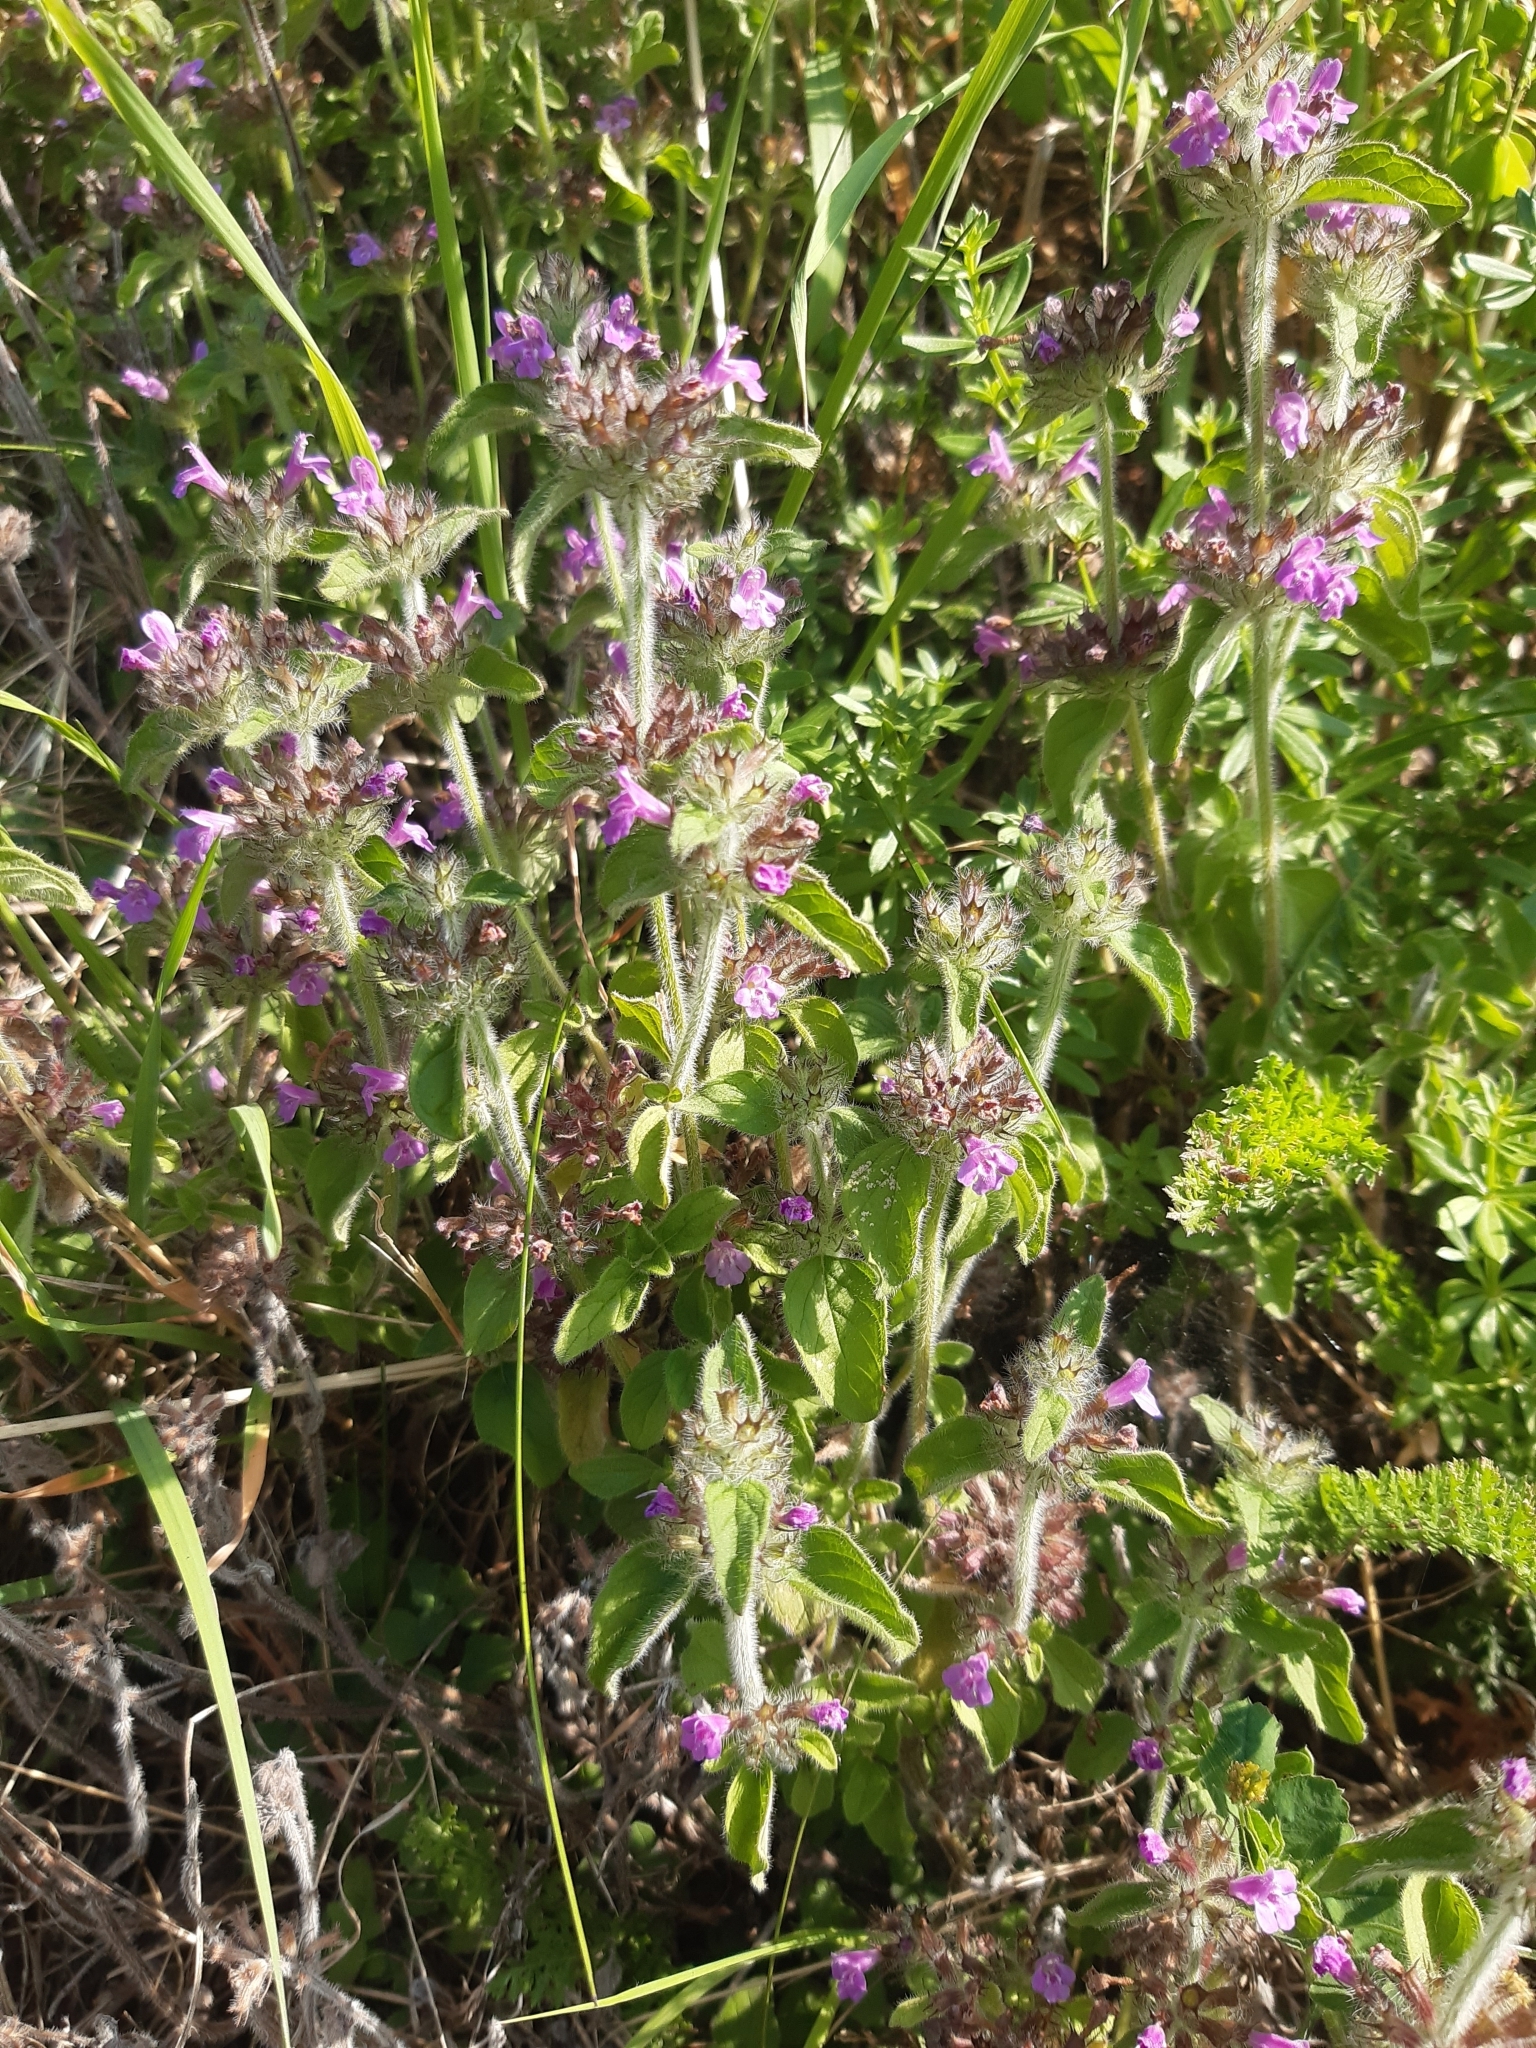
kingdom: Plantae
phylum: Tracheophyta
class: Magnoliopsida
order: Lamiales
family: Lamiaceae
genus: Clinopodium
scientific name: Clinopodium vulgare
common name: Wild basil
